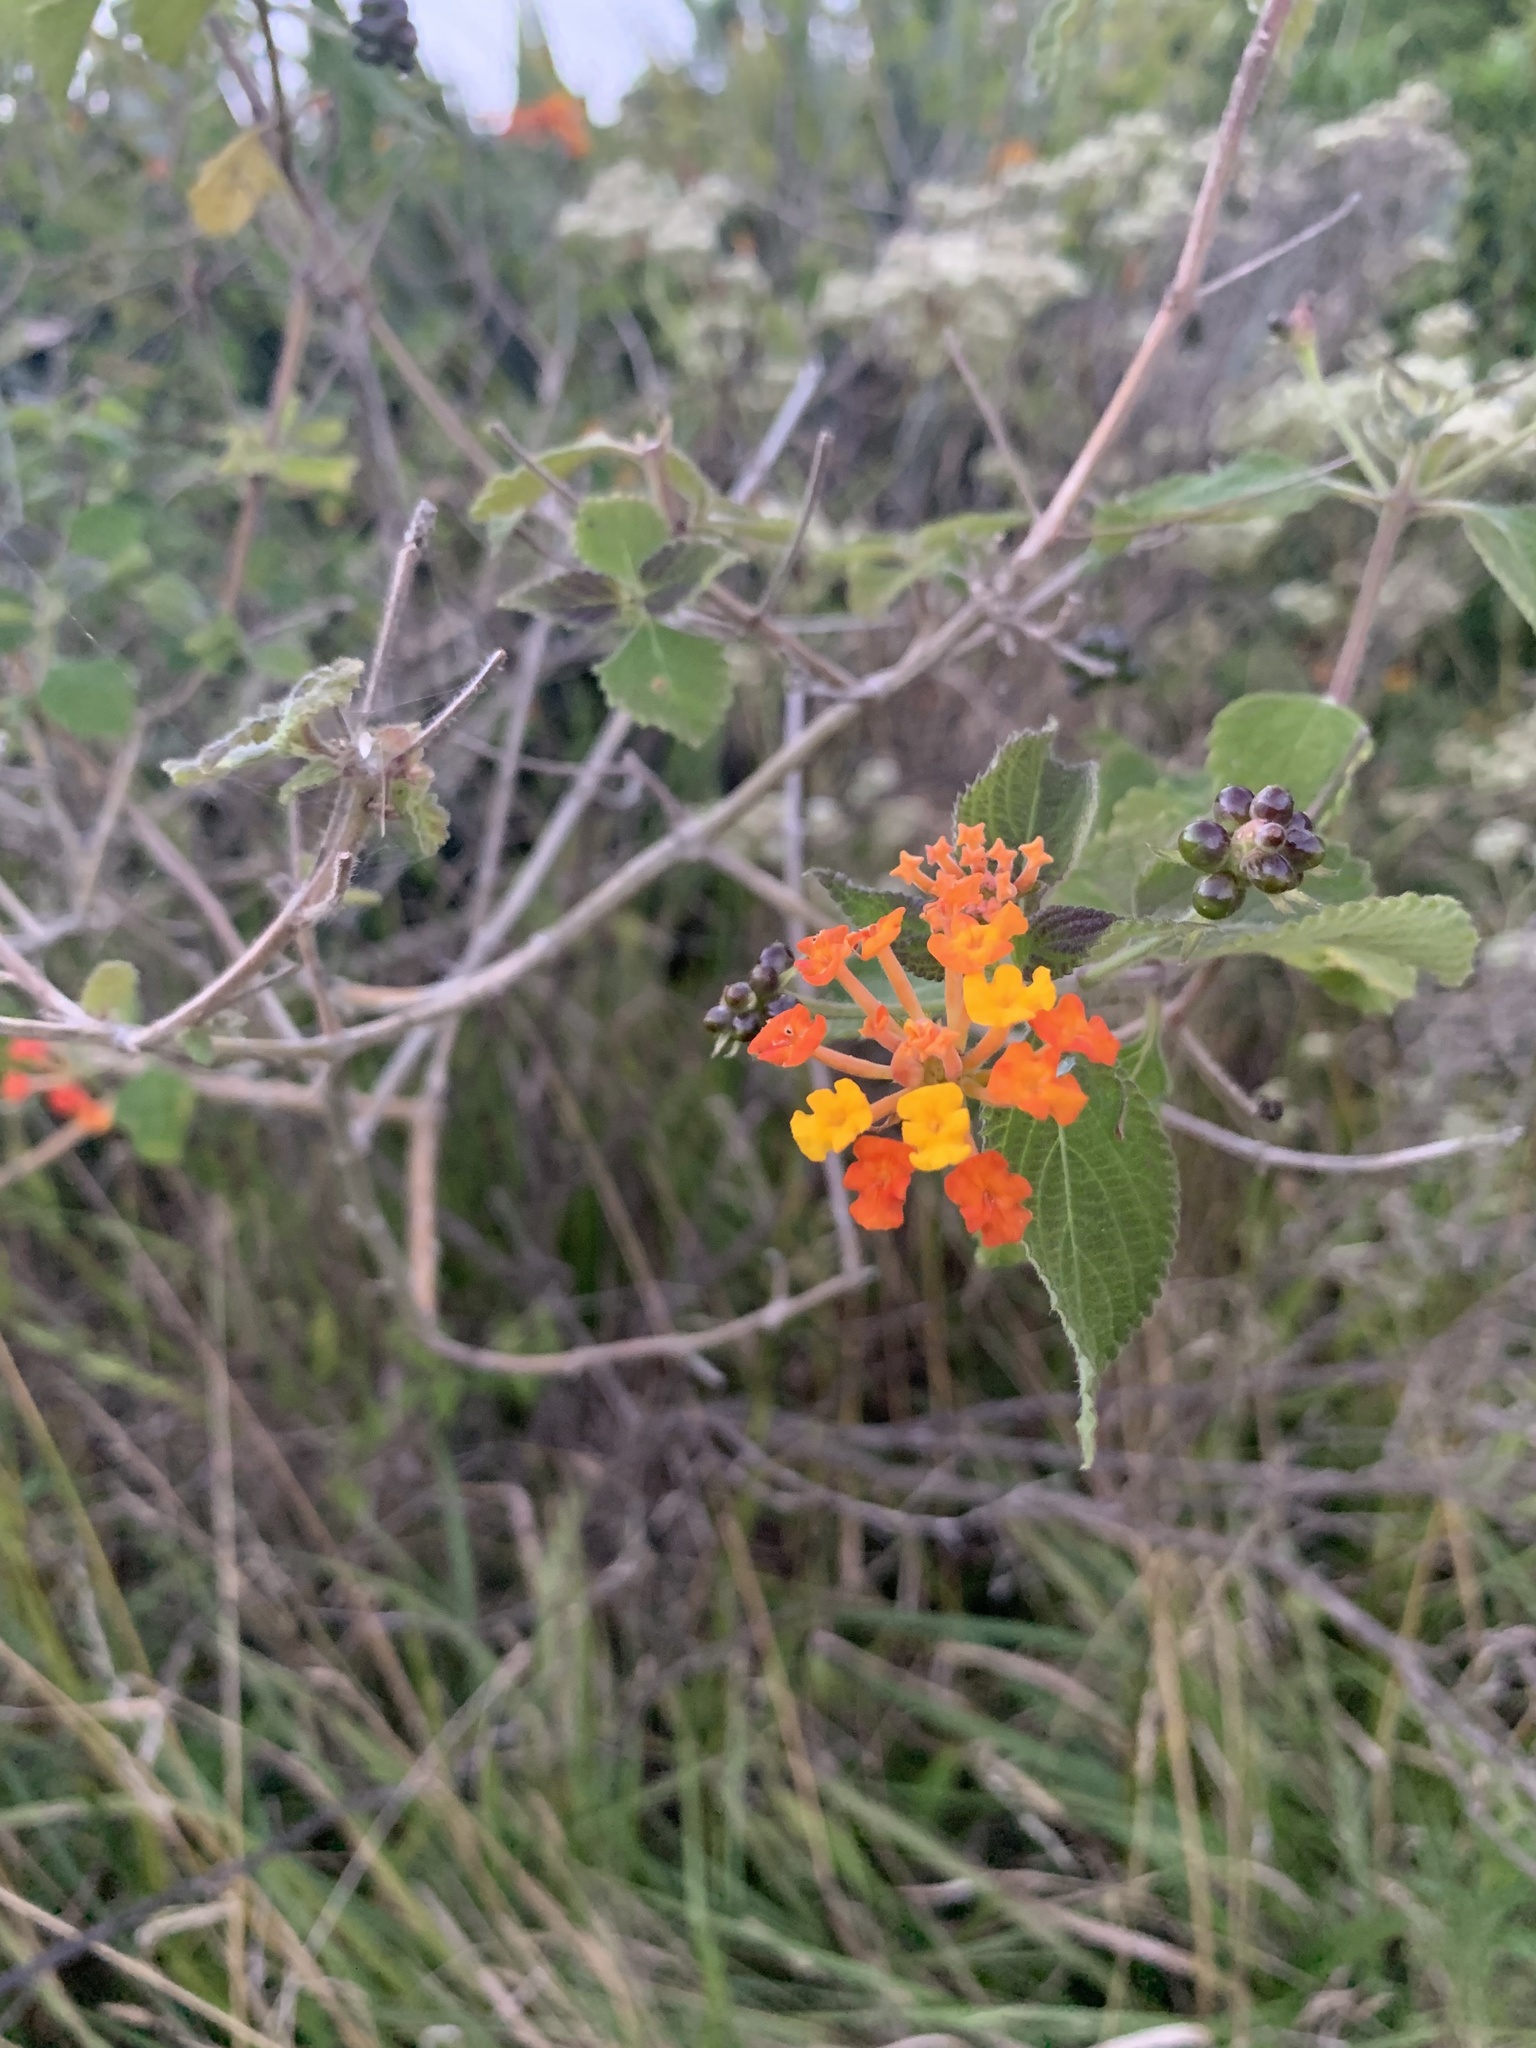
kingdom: Plantae
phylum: Tracheophyta
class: Magnoliopsida
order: Lamiales
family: Verbenaceae
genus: Lantana
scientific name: Lantana camara
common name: Lantana
